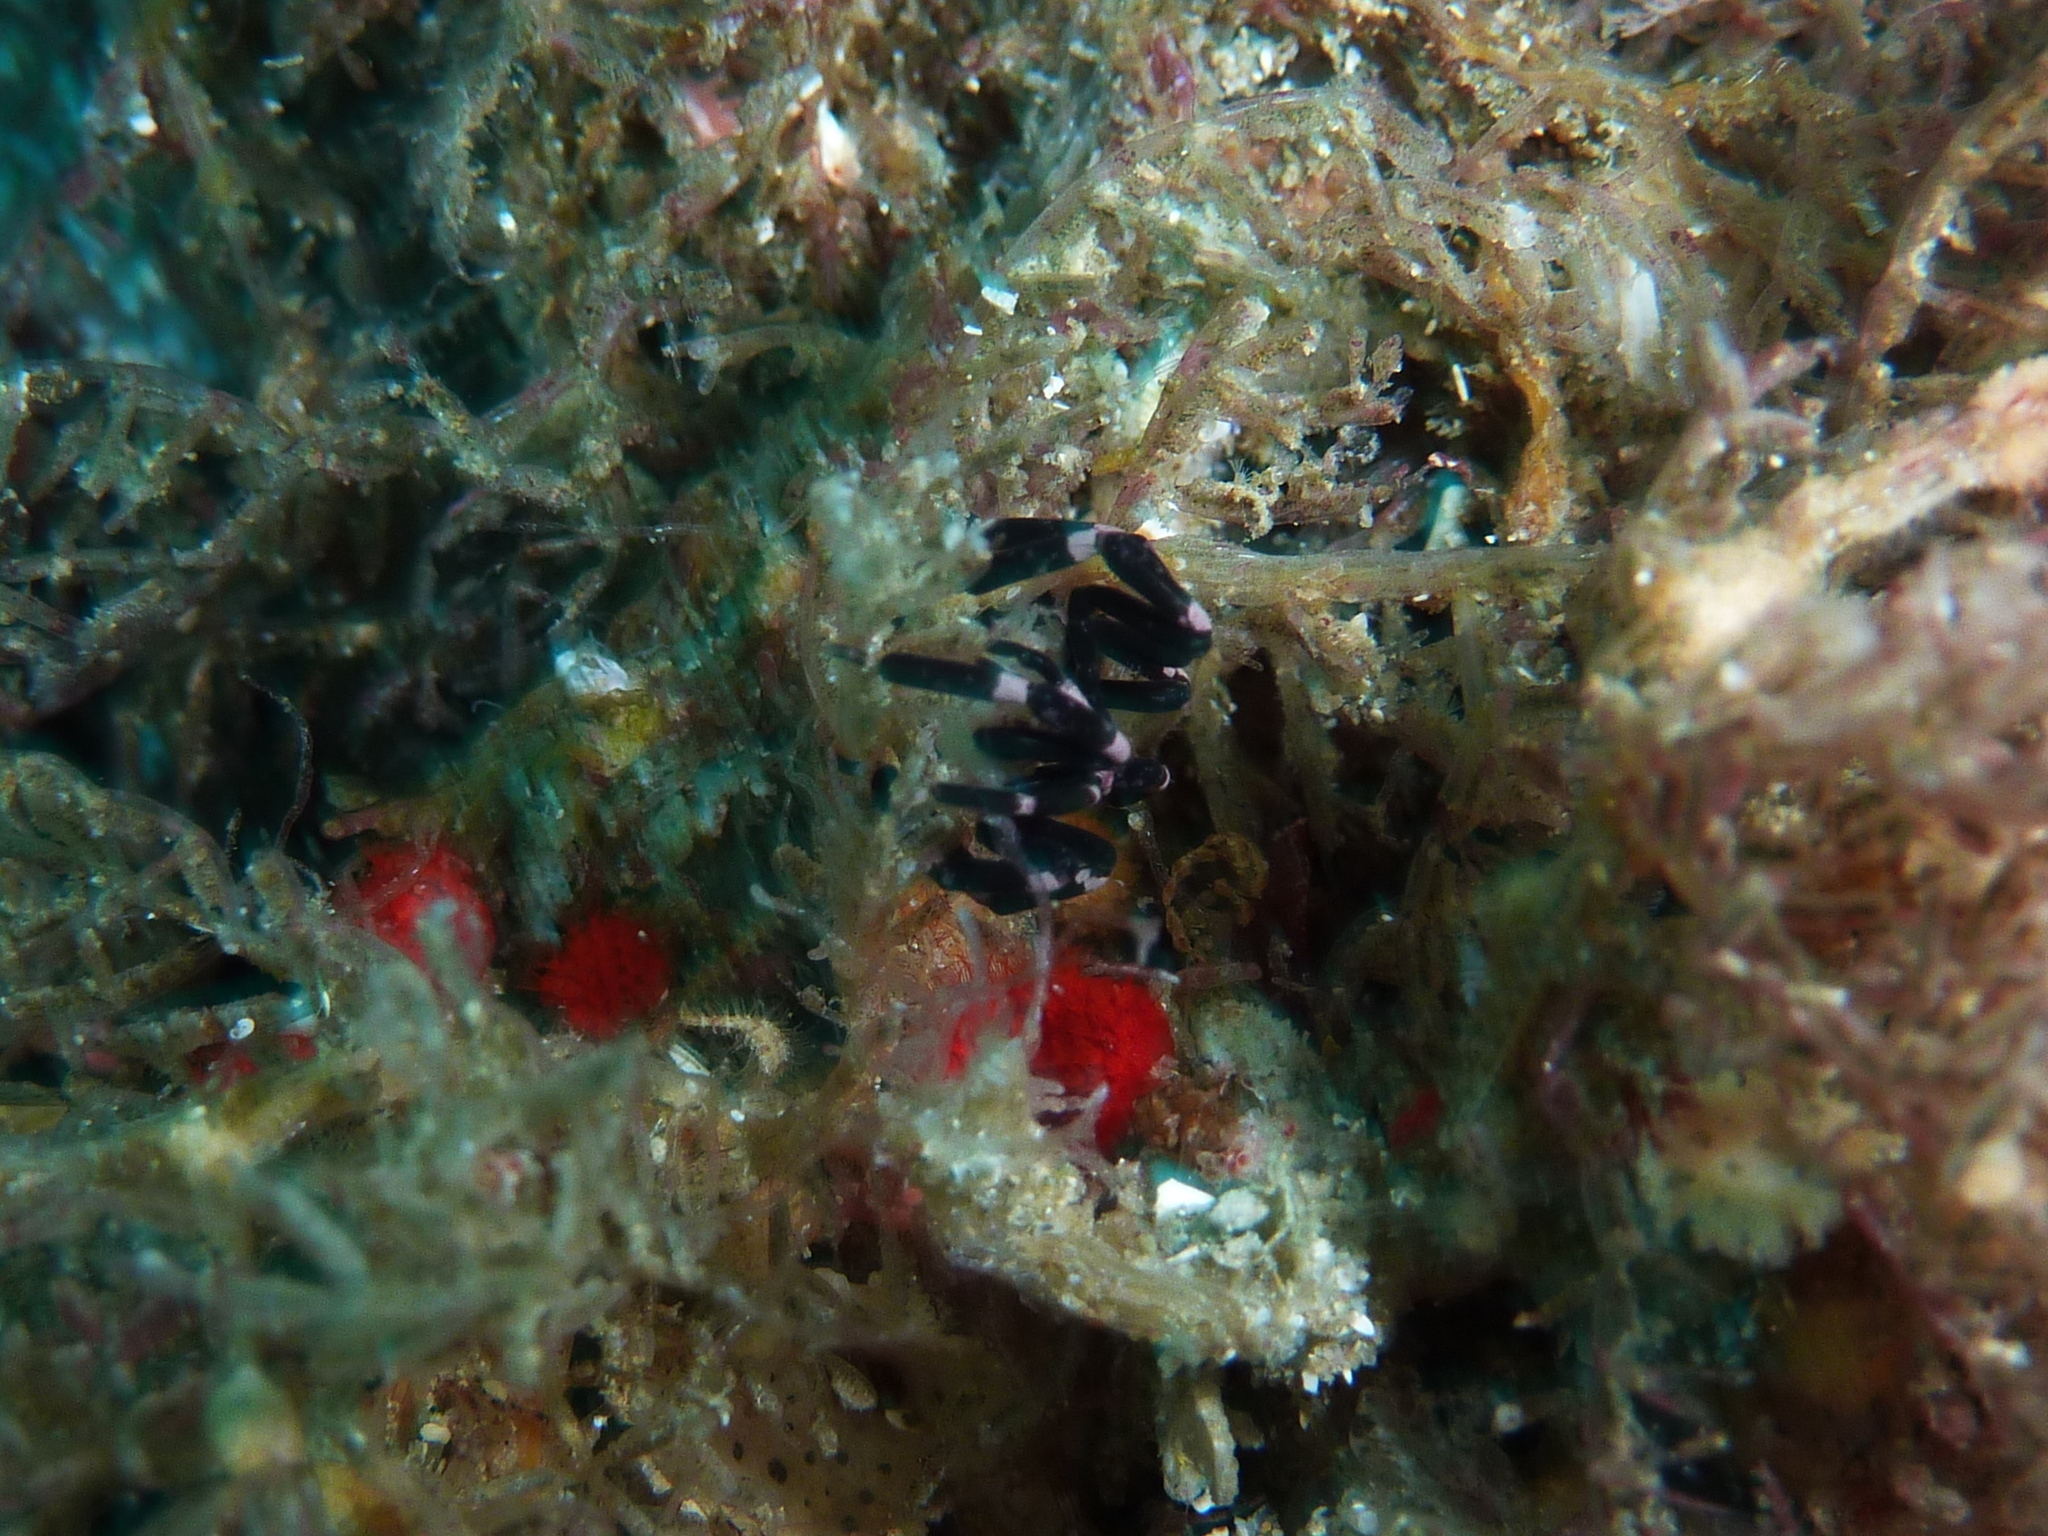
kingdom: Animalia
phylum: Arthropoda
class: Pycnogonida
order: Pantopoda
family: Callipallenidae
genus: Stylopallene
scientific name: Stylopallene tubirostris
